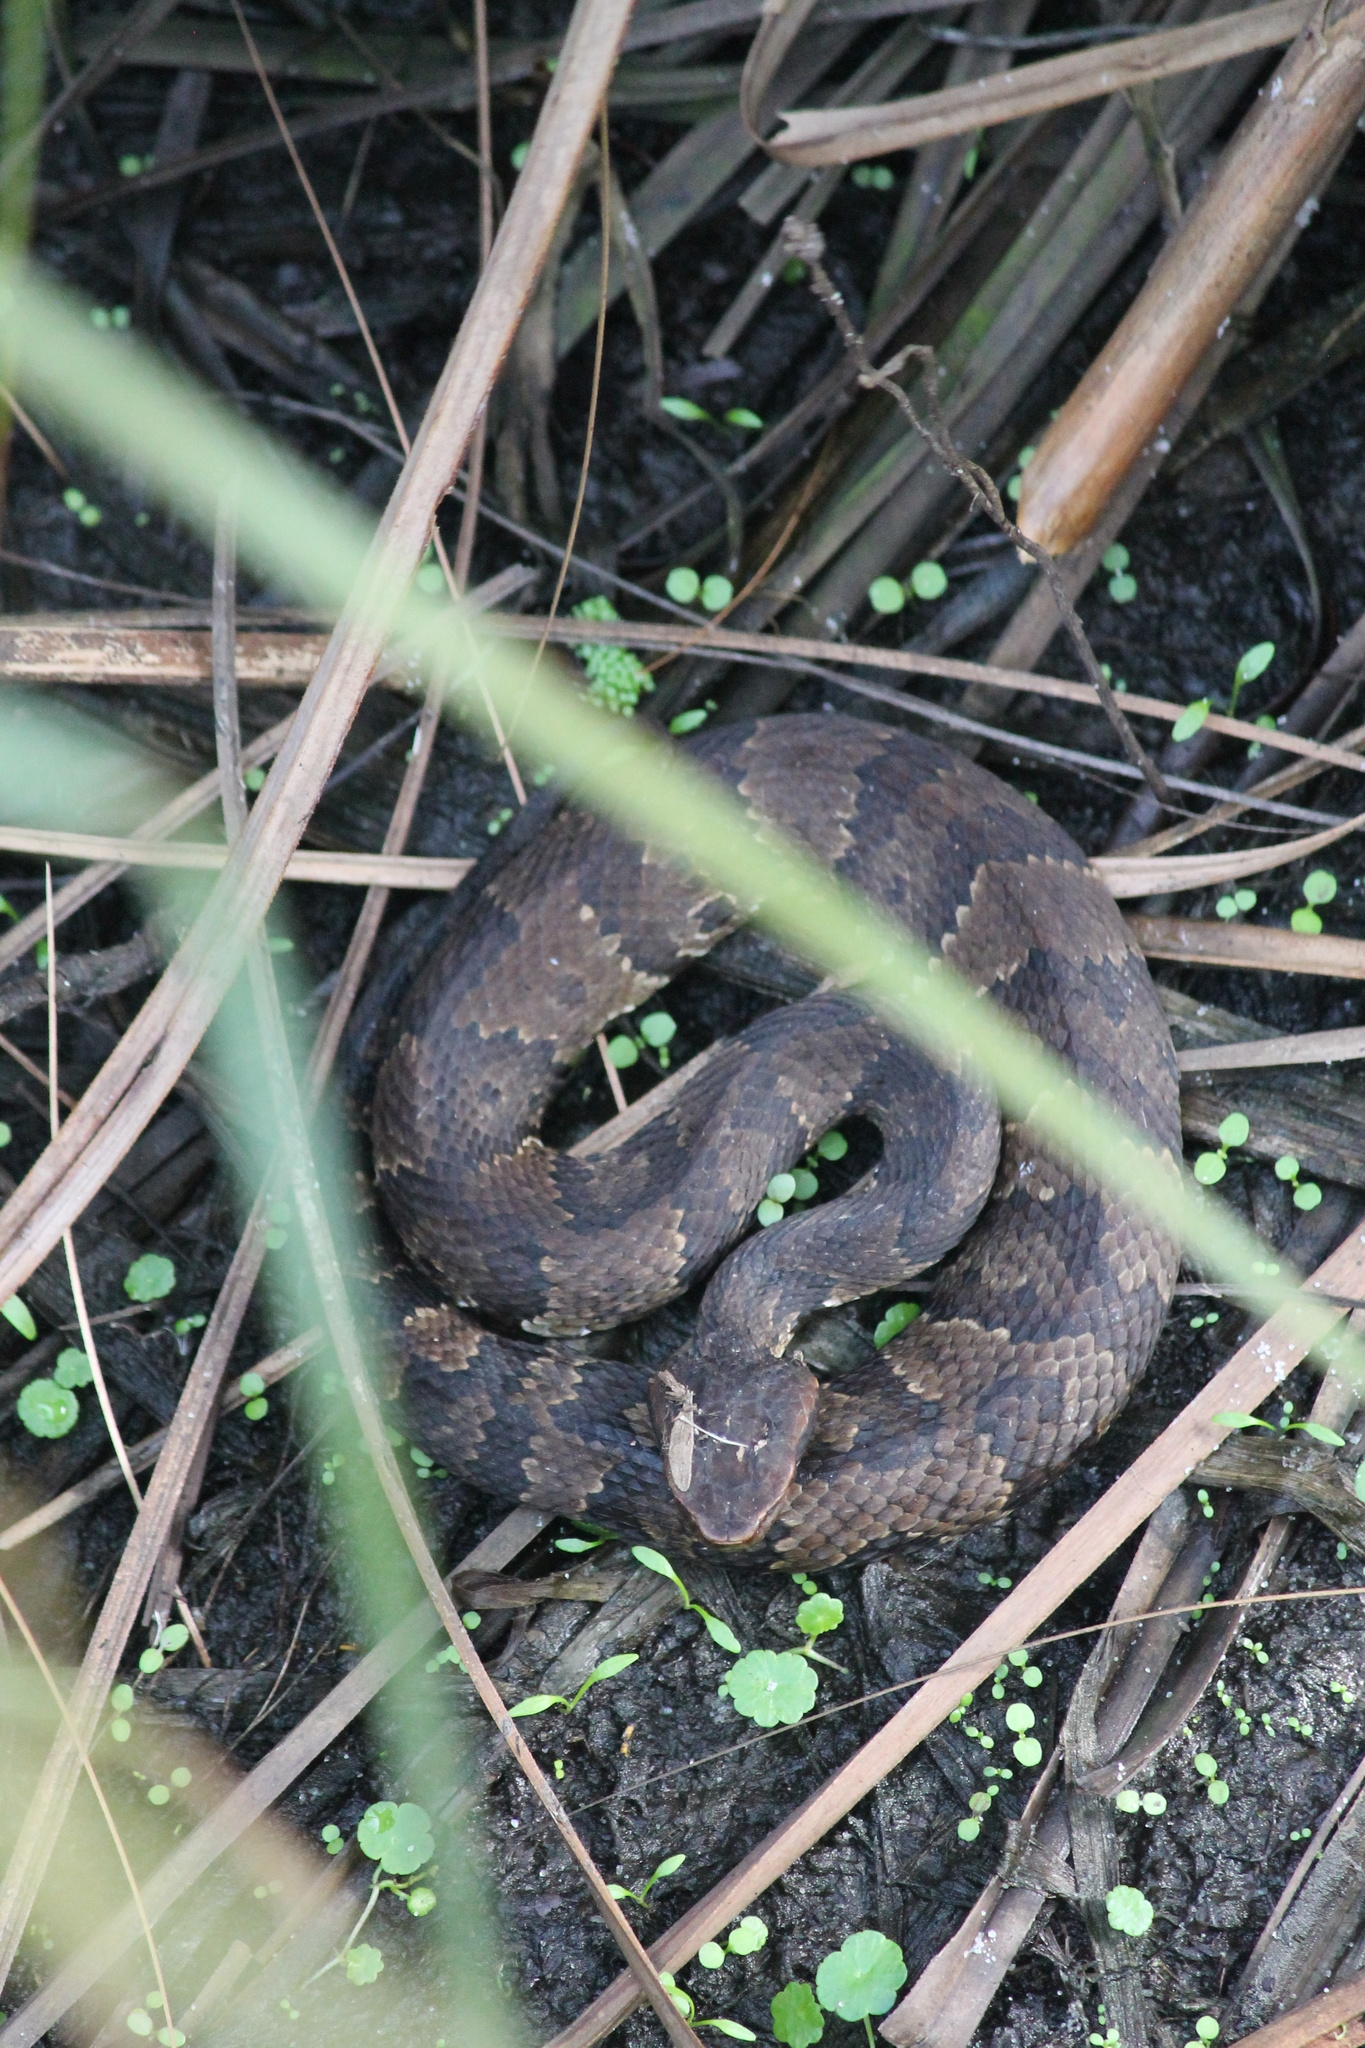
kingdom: Animalia
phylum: Chordata
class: Squamata
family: Viperidae
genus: Agkistrodon
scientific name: Agkistrodon
